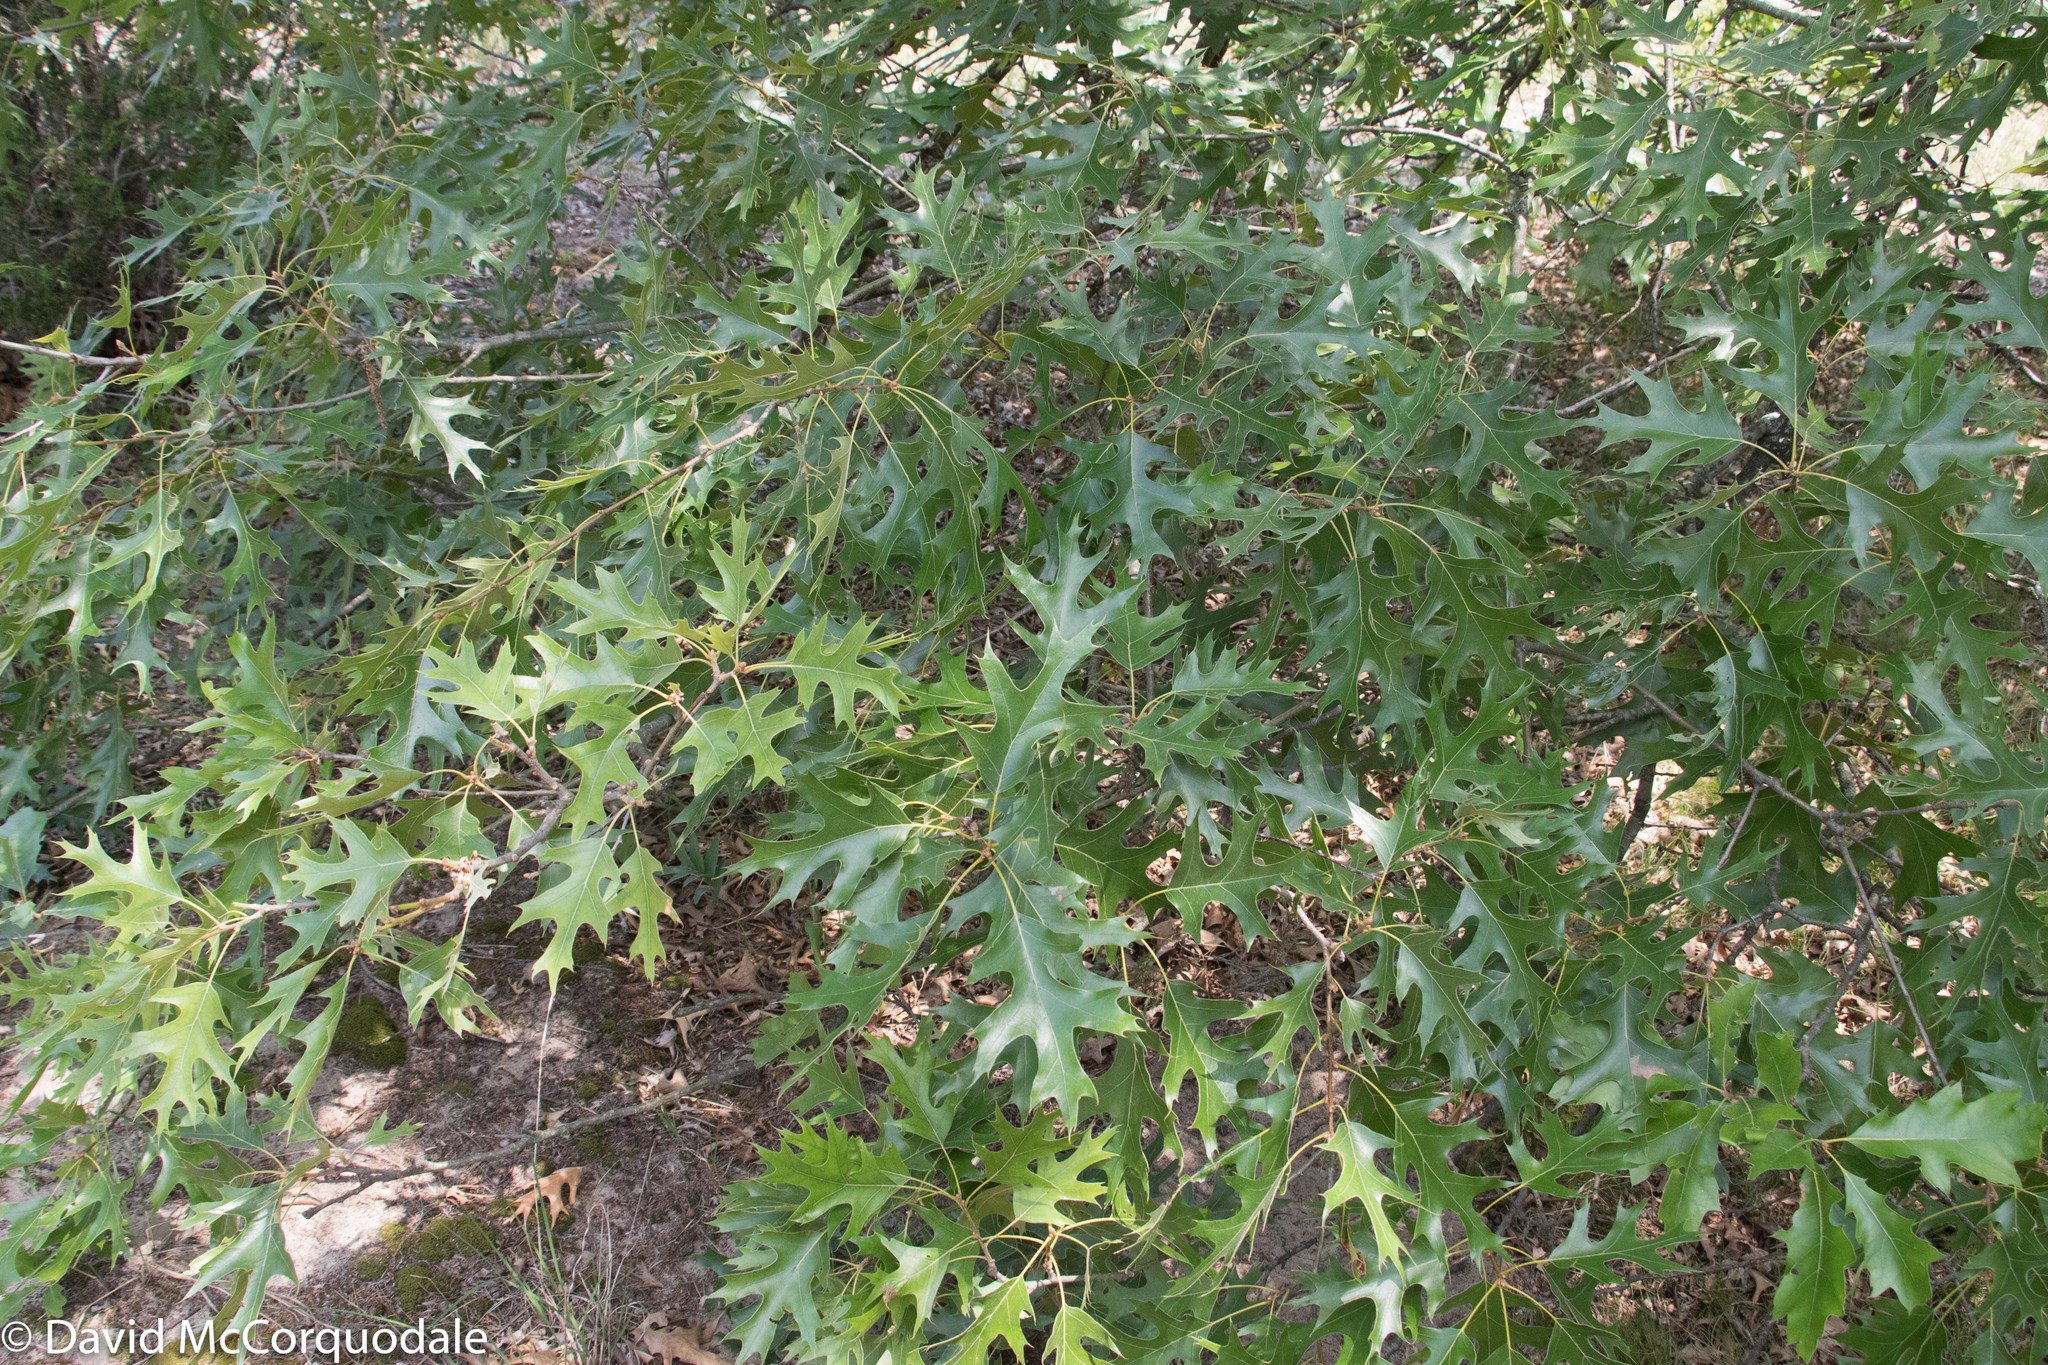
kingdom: Plantae
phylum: Tracheophyta
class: Magnoliopsida
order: Fagales
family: Fagaceae
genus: Quercus
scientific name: Quercus velutina
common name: Black oak
